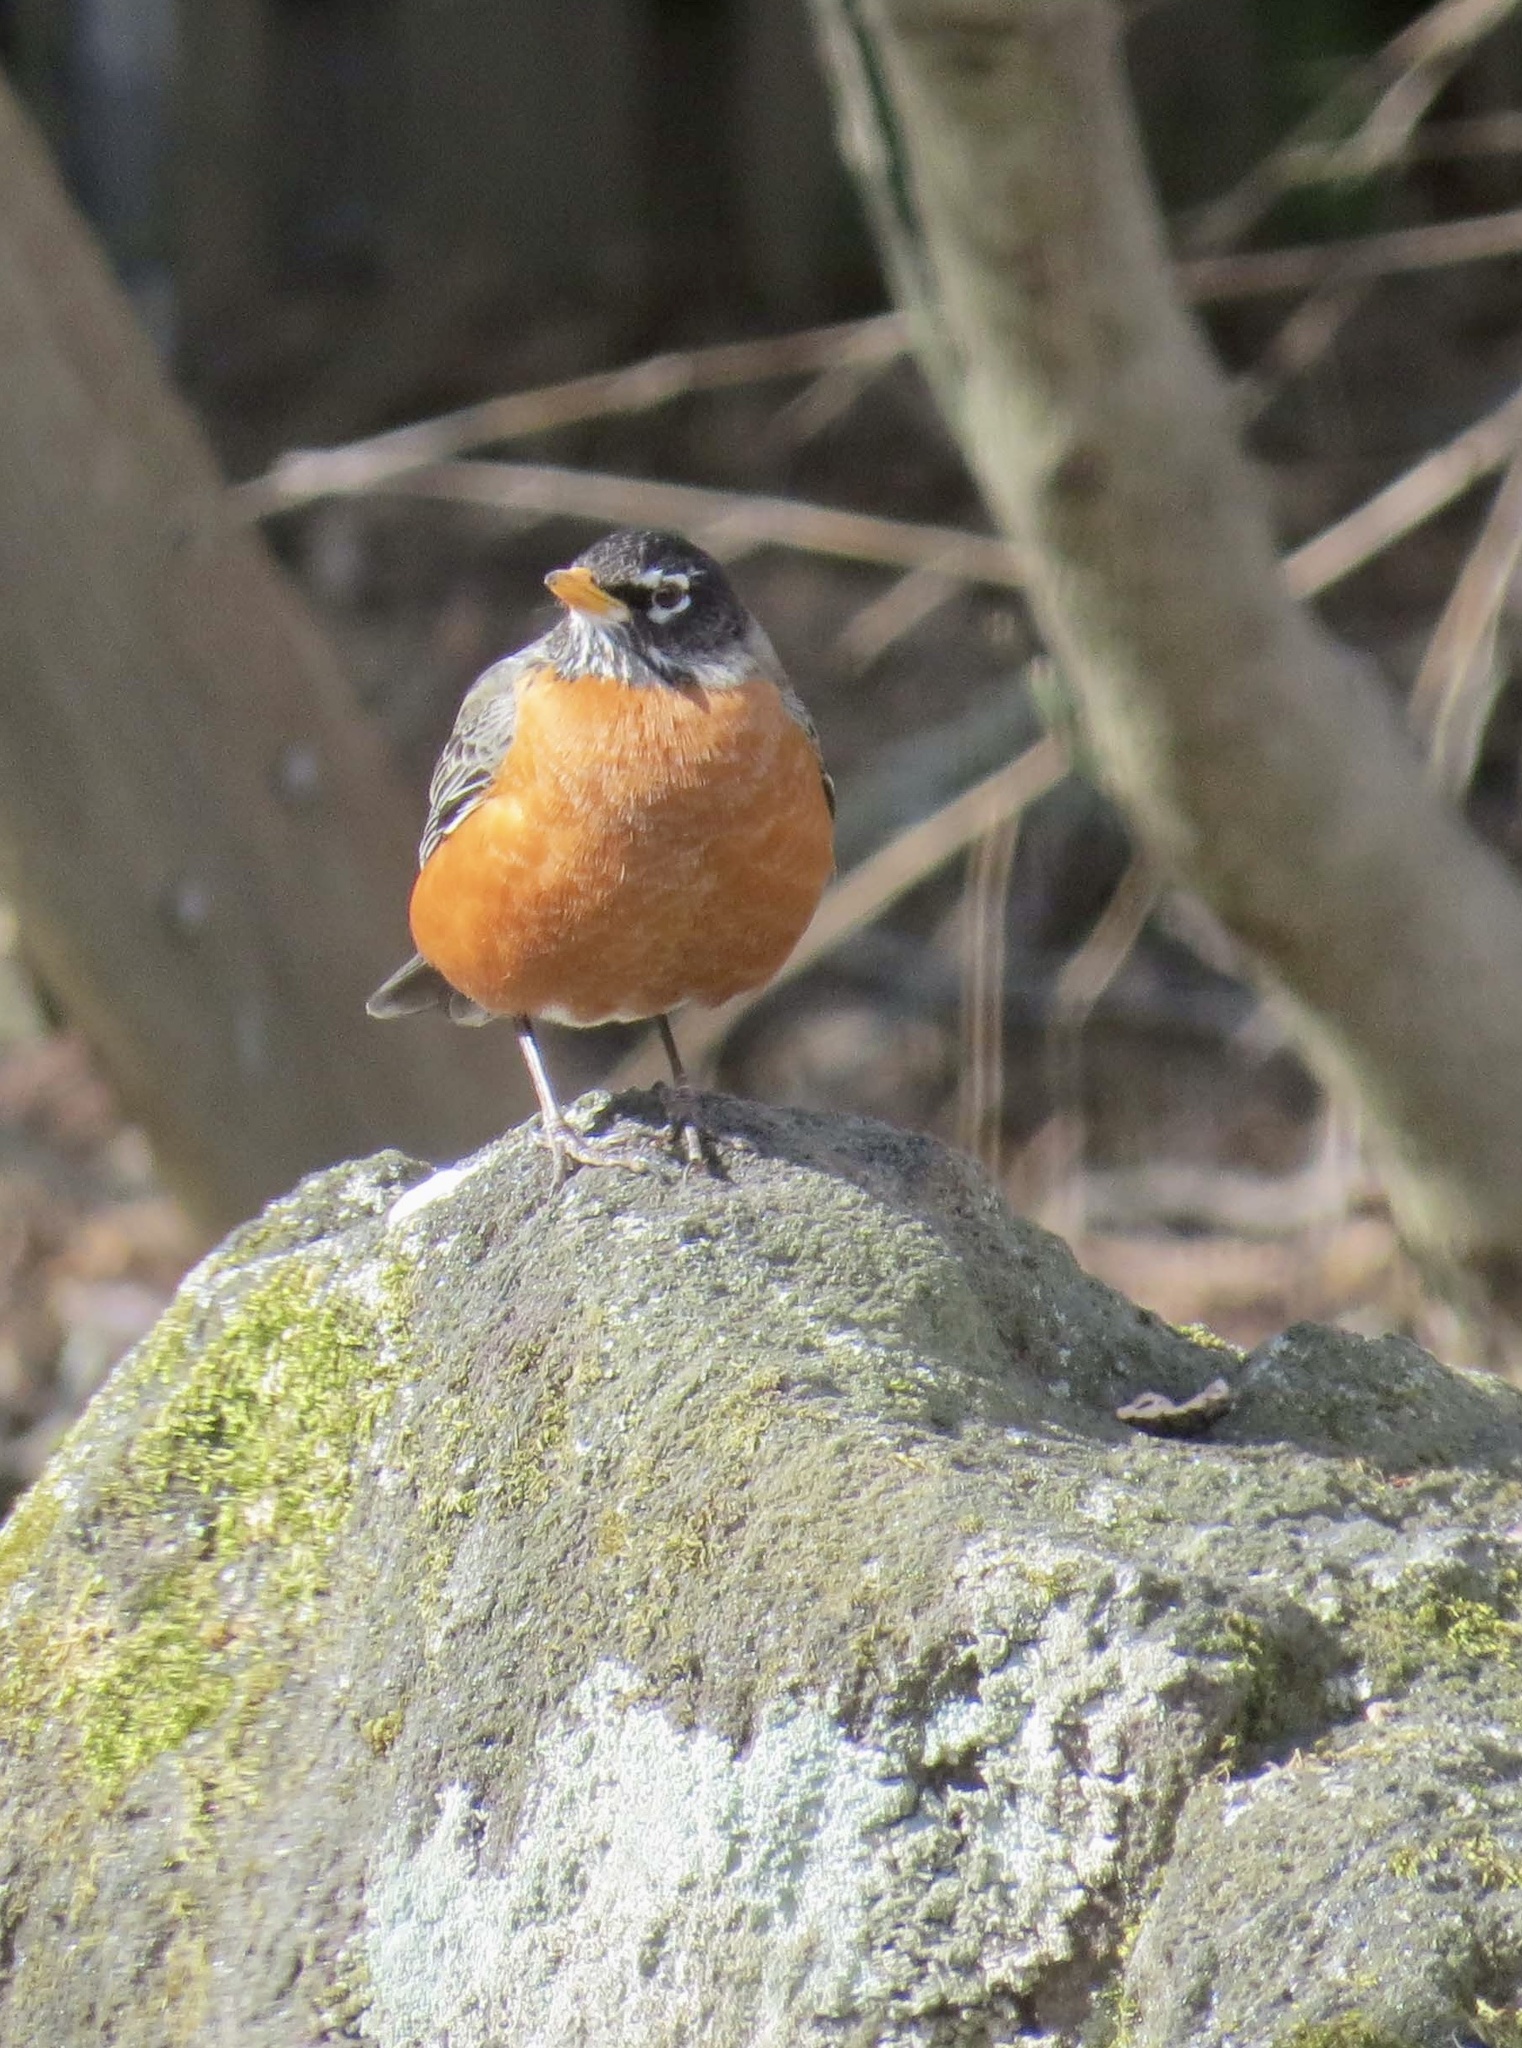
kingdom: Animalia
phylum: Chordata
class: Aves
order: Passeriformes
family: Turdidae
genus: Turdus
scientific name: Turdus migratorius
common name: American robin
